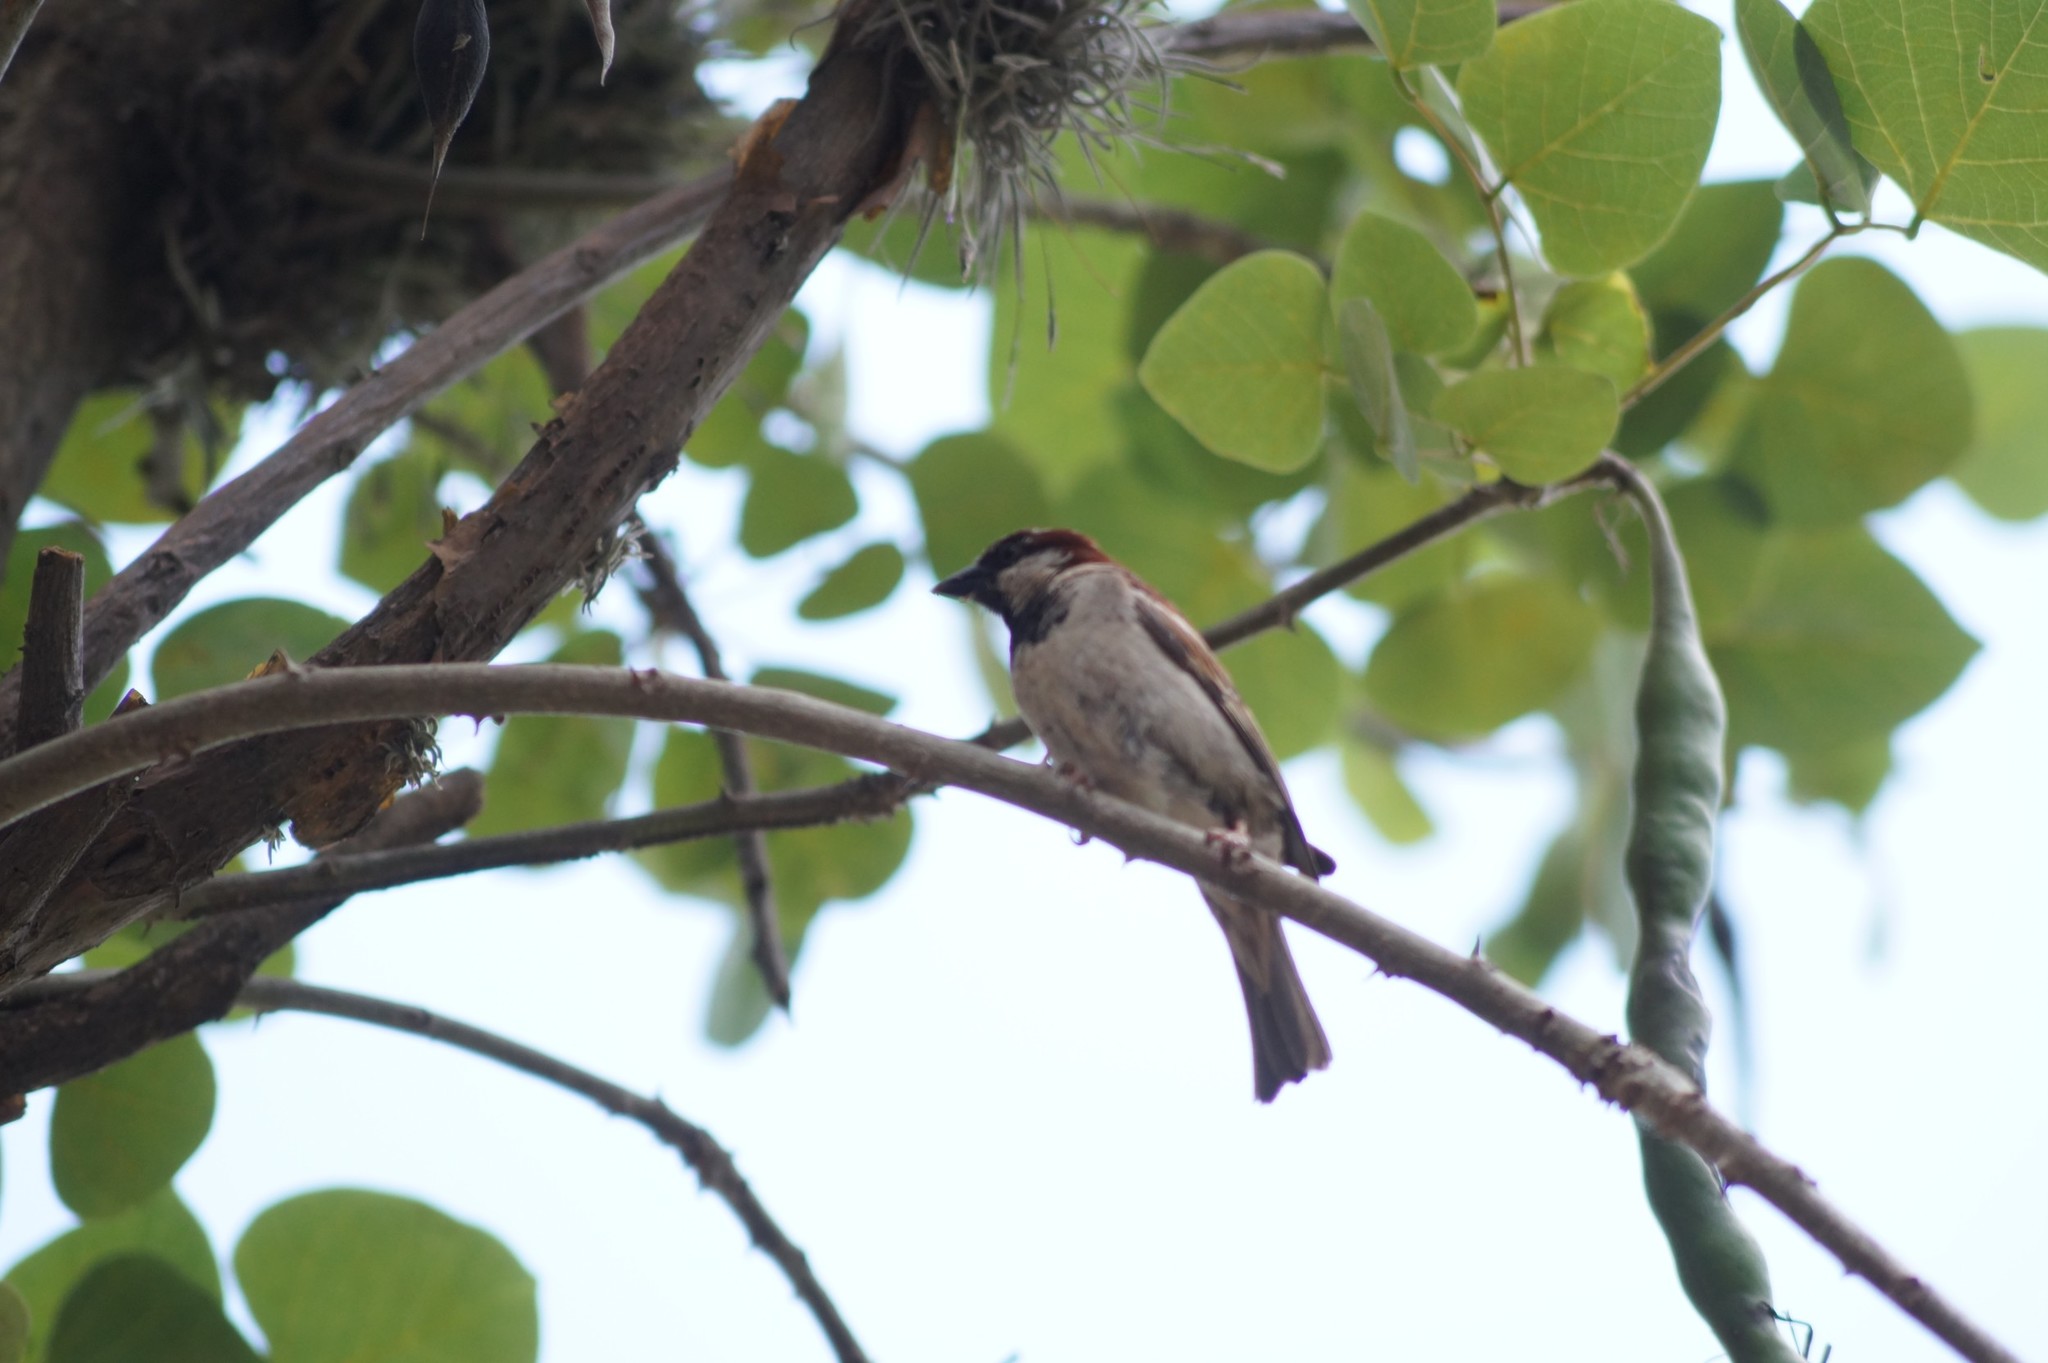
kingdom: Animalia
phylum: Chordata
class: Aves
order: Passeriformes
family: Passeridae
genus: Passer
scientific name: Passer domesticus
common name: House sparrow
